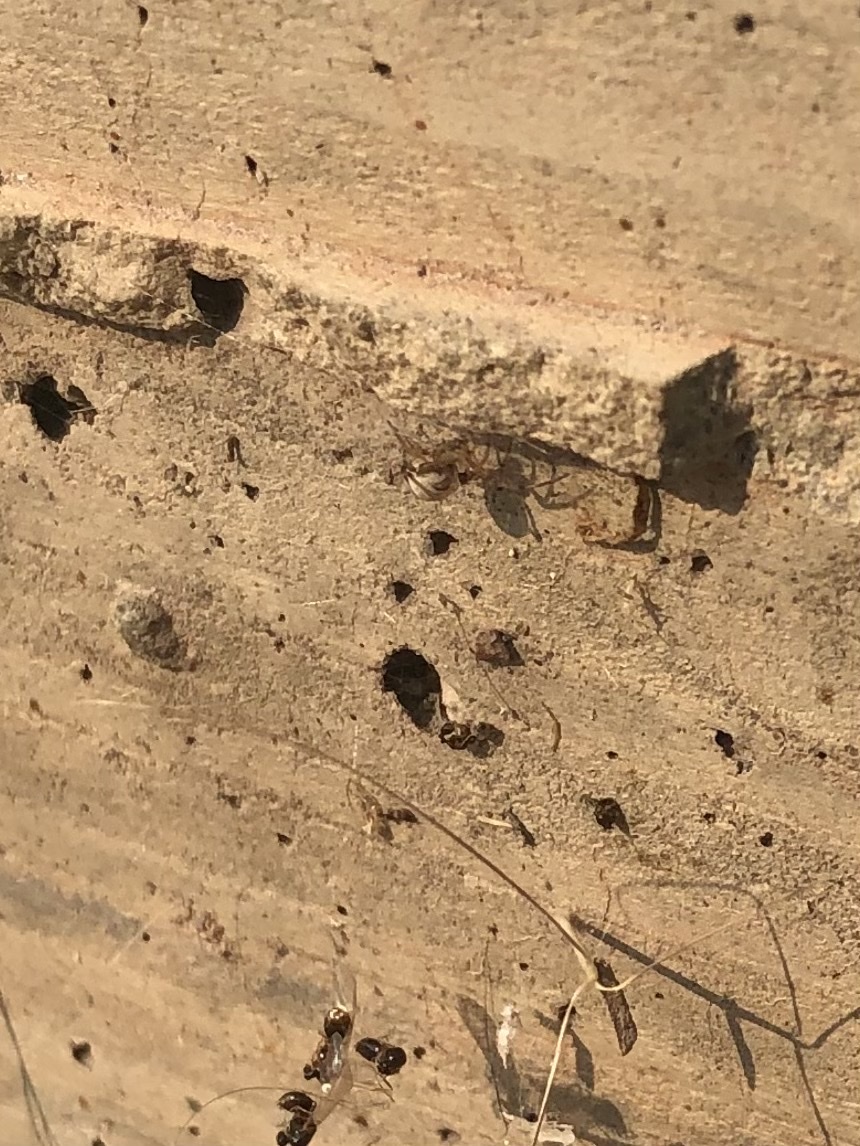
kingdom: Animalia
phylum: Arthropoda
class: Arachnida
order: Araneae
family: Theridiidae
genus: Latrodectus
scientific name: Latrodectus hesperus
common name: Western black widow
